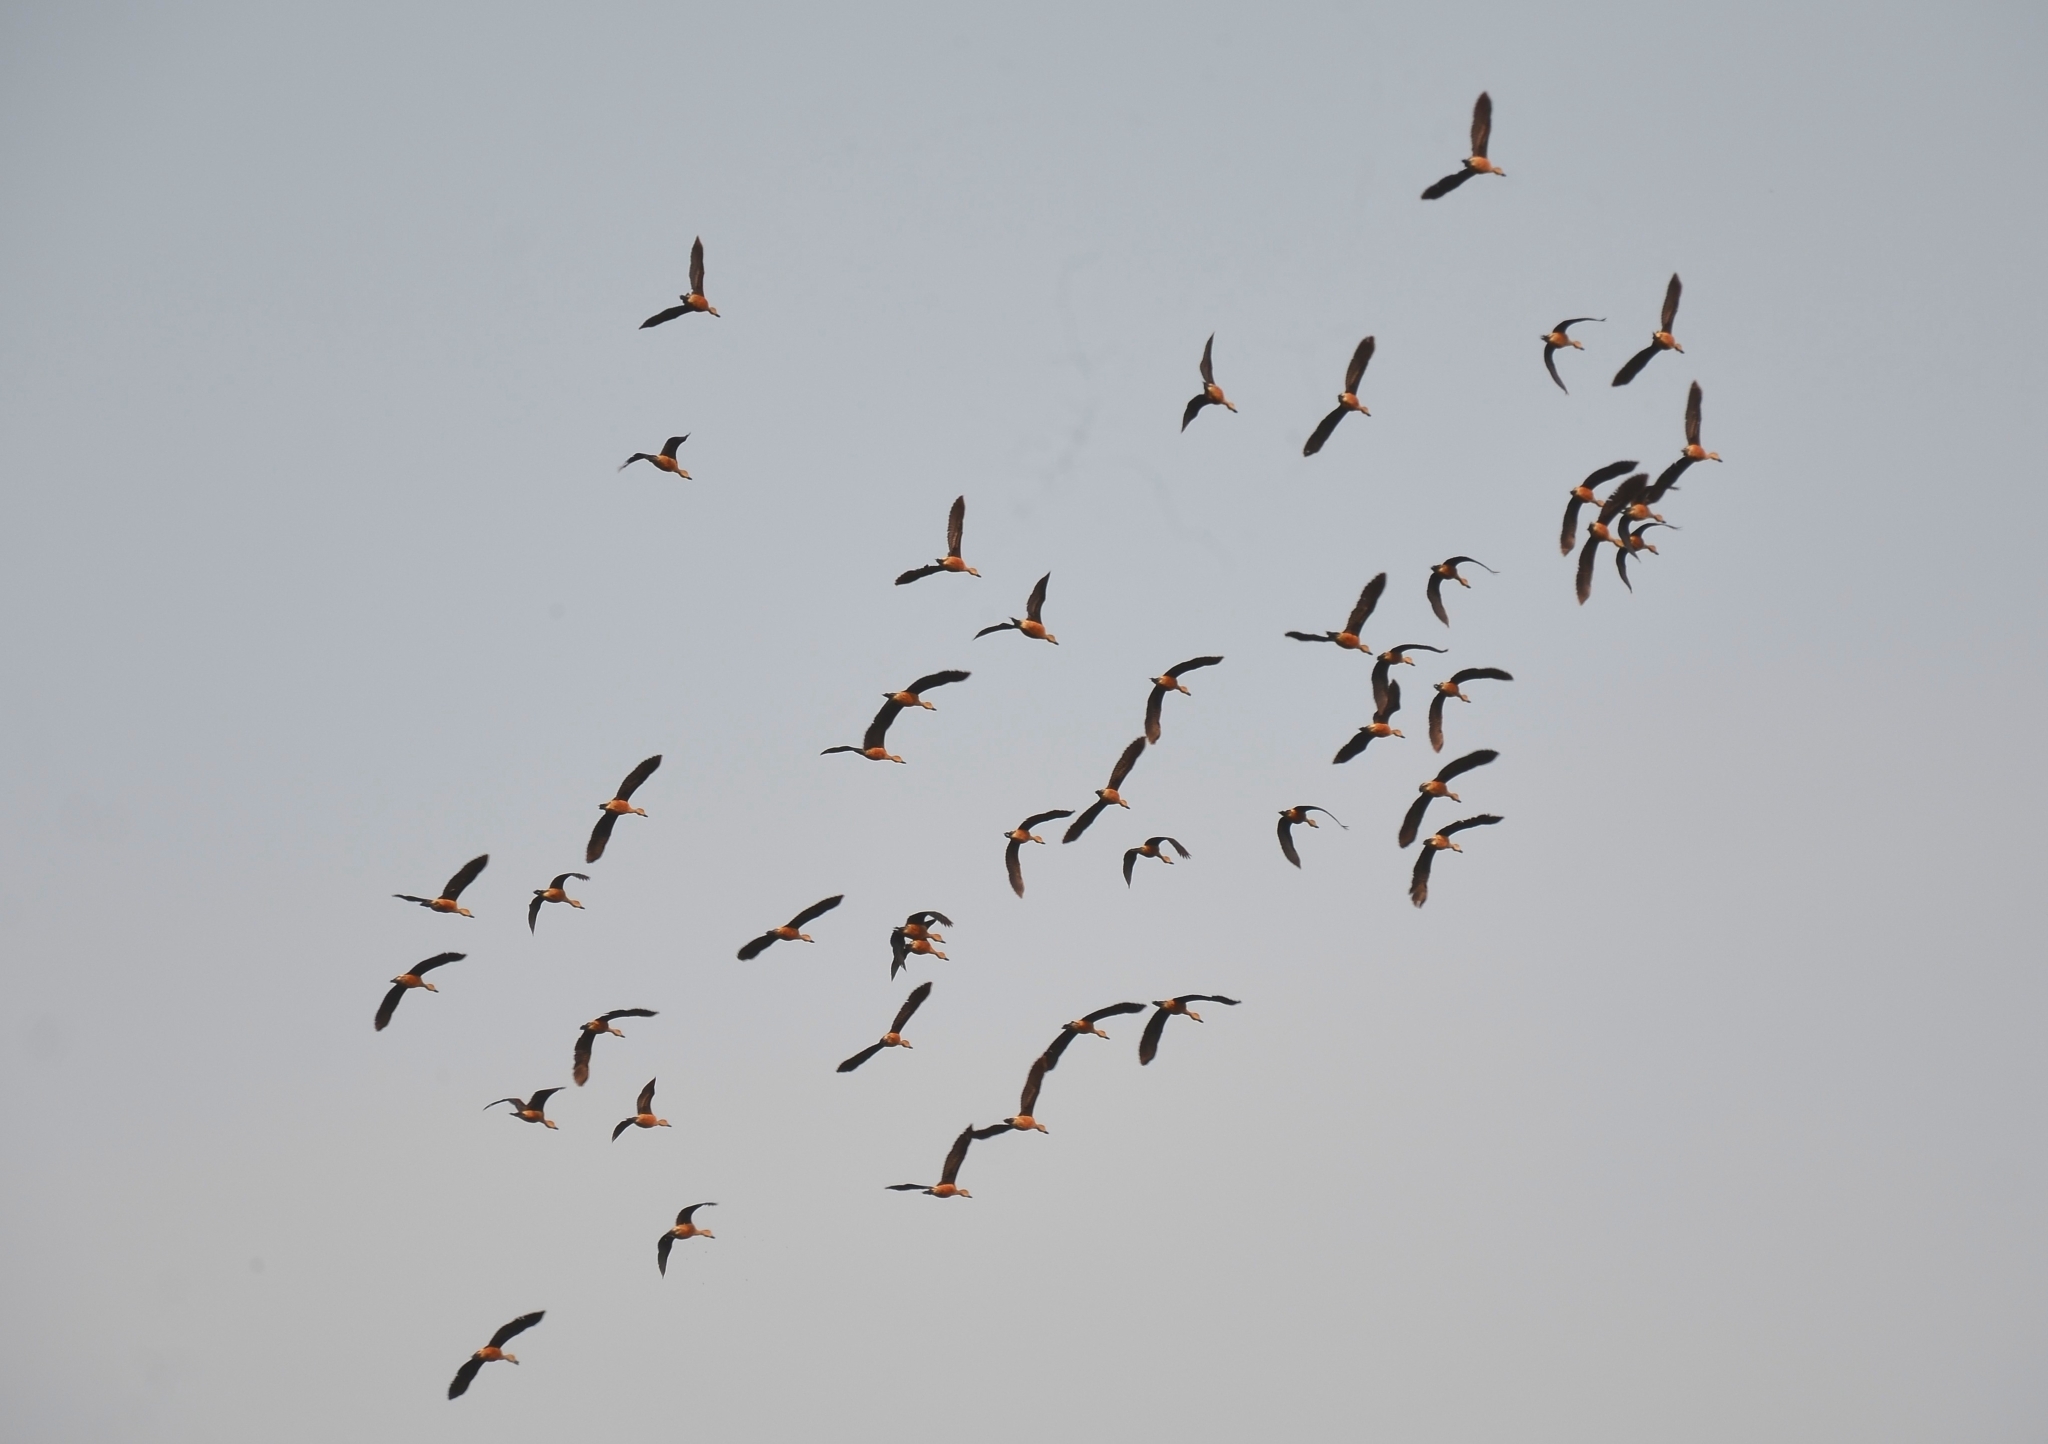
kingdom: Animalia
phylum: Chordata
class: Aves
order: Anseriformes
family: Anatidae
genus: Dendrocygna
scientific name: Dendrocygna javanica
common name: Lesser whistling-duck
